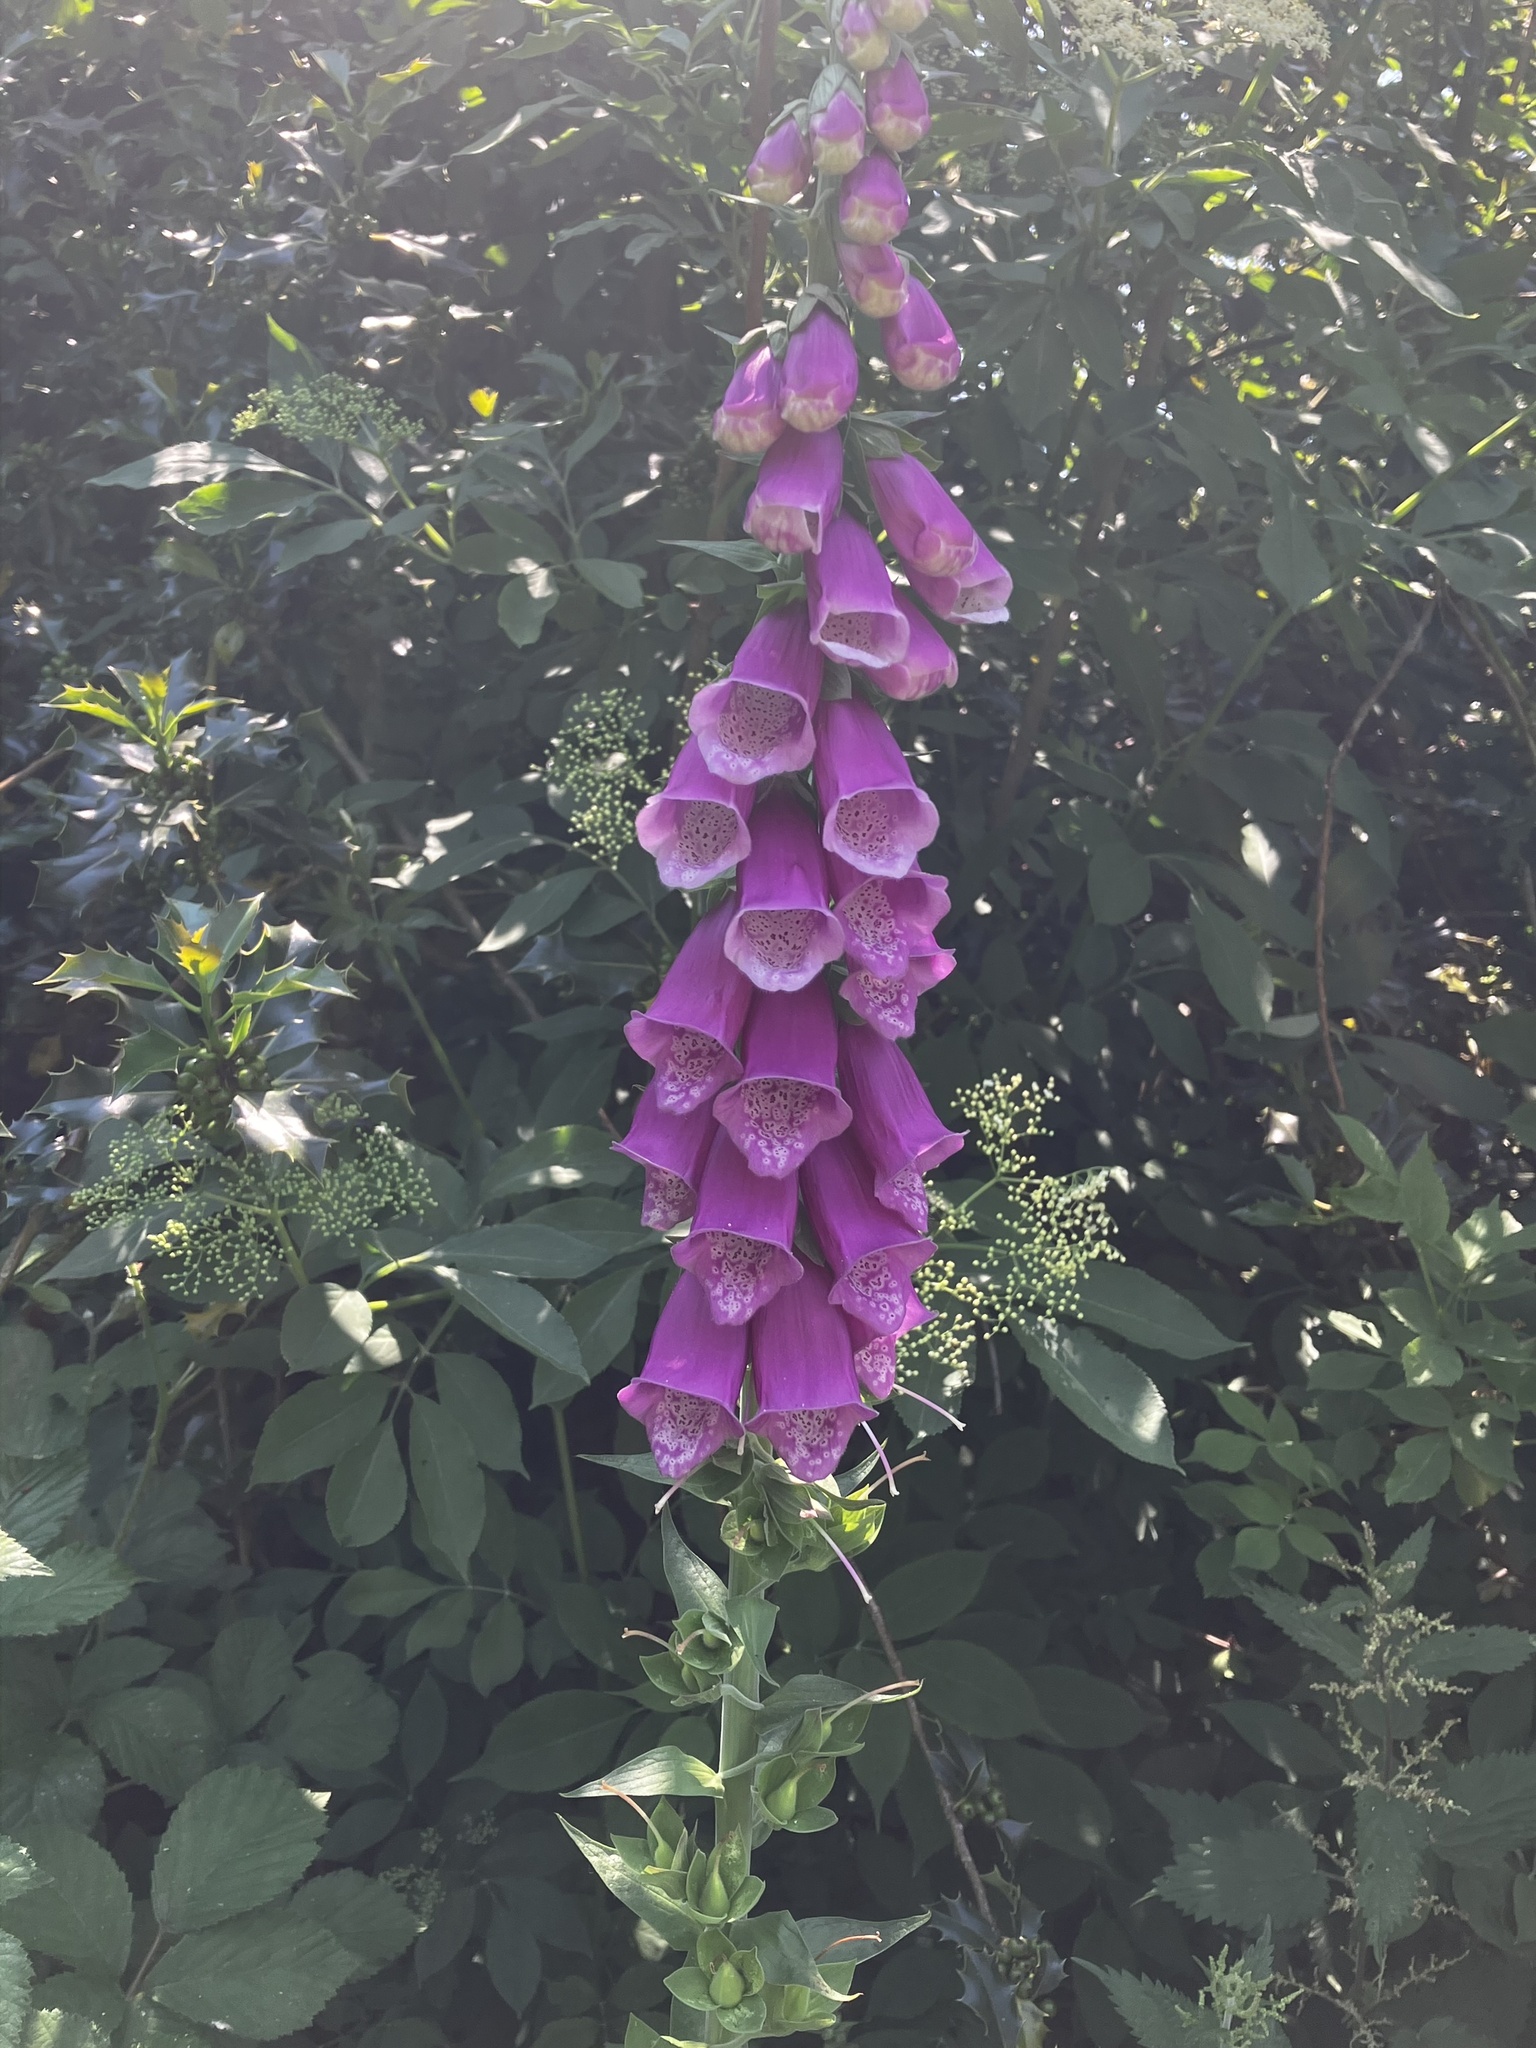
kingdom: Plantae
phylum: Tracheophyta
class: Magnoliopsida
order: Lamiales
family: Plantaginaceae
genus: Digitalis
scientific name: Digitalis purpurea
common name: Foxglove
